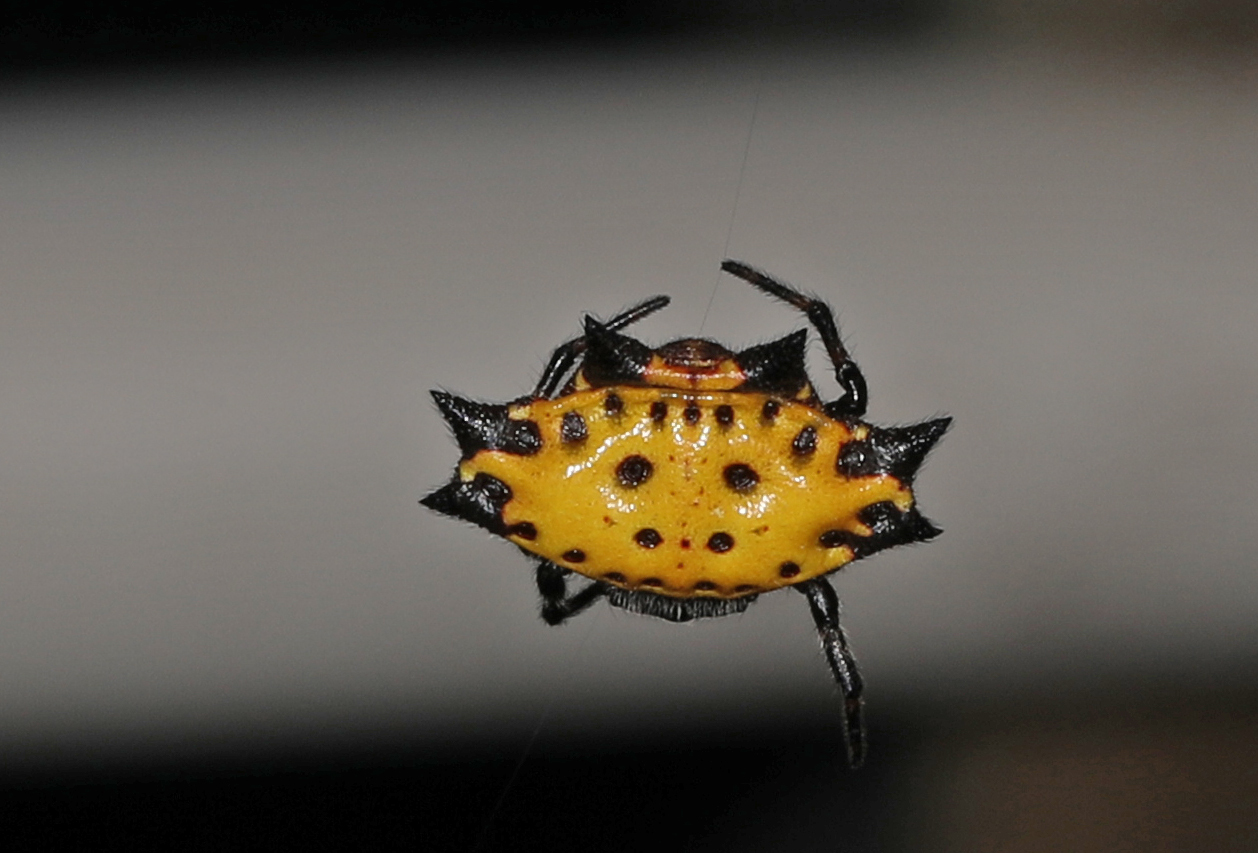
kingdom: Animalia
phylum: Arthropoda
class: Arachnida
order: Araneae
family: Araneidae
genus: Gasteracantha
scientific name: Gasteracantha cancriformis
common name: Orb weavers
